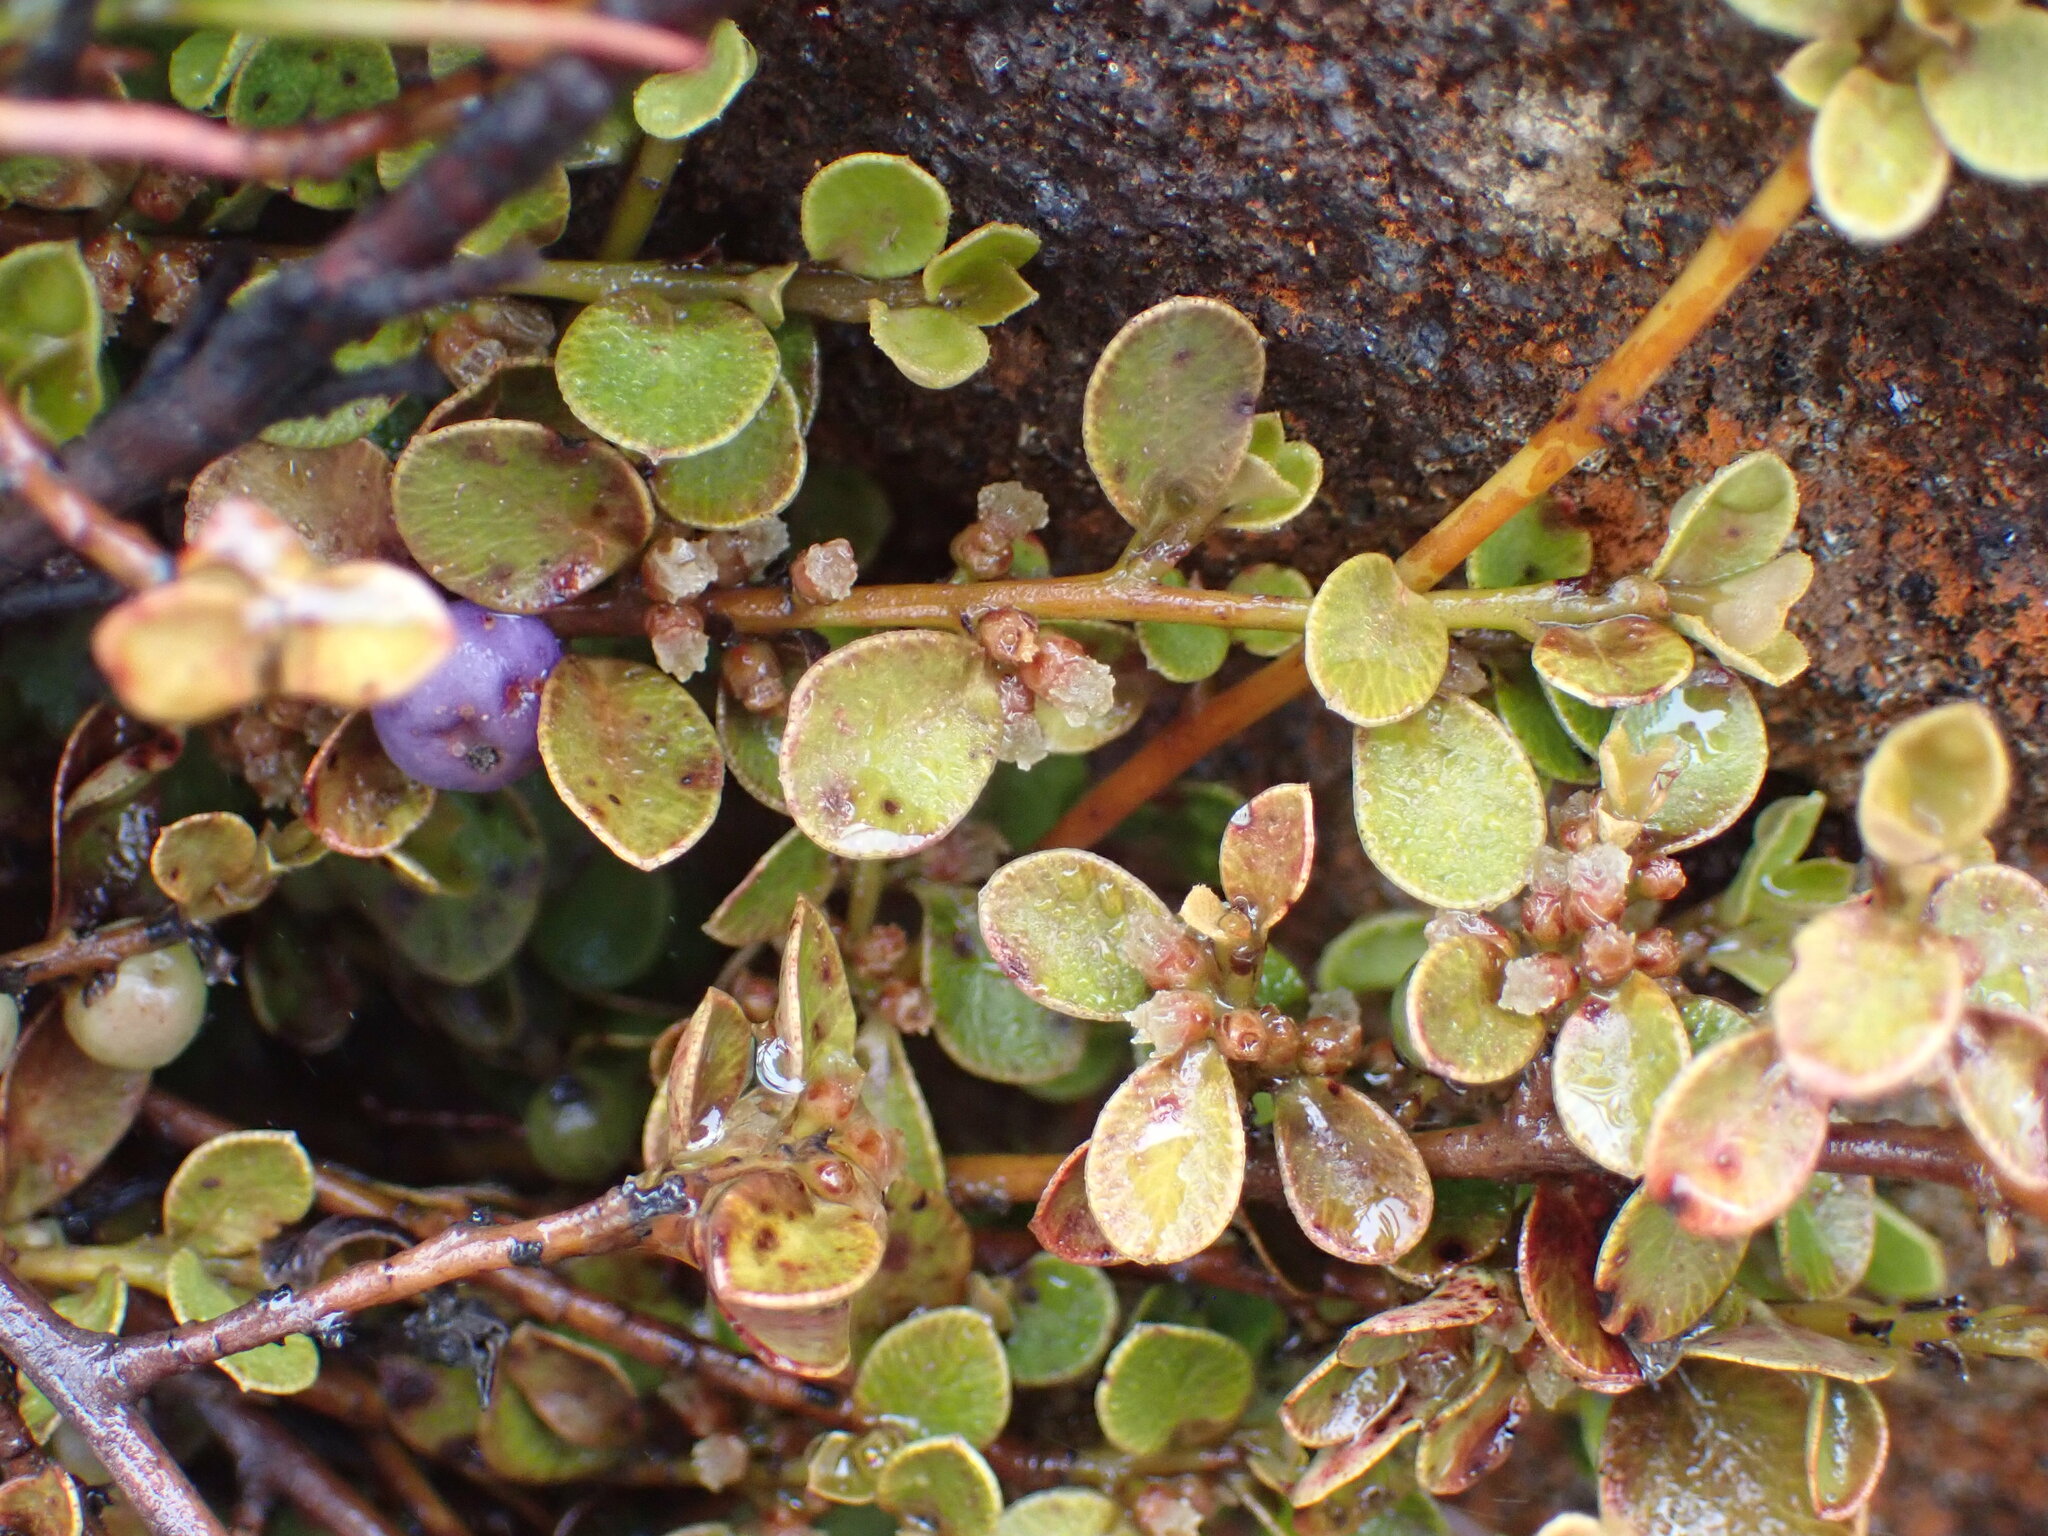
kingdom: Plantae
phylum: Tracheophyta
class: Magnoliopsida
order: Ericales
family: Primulaceae
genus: Myrsine
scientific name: Myrsine nummularia
